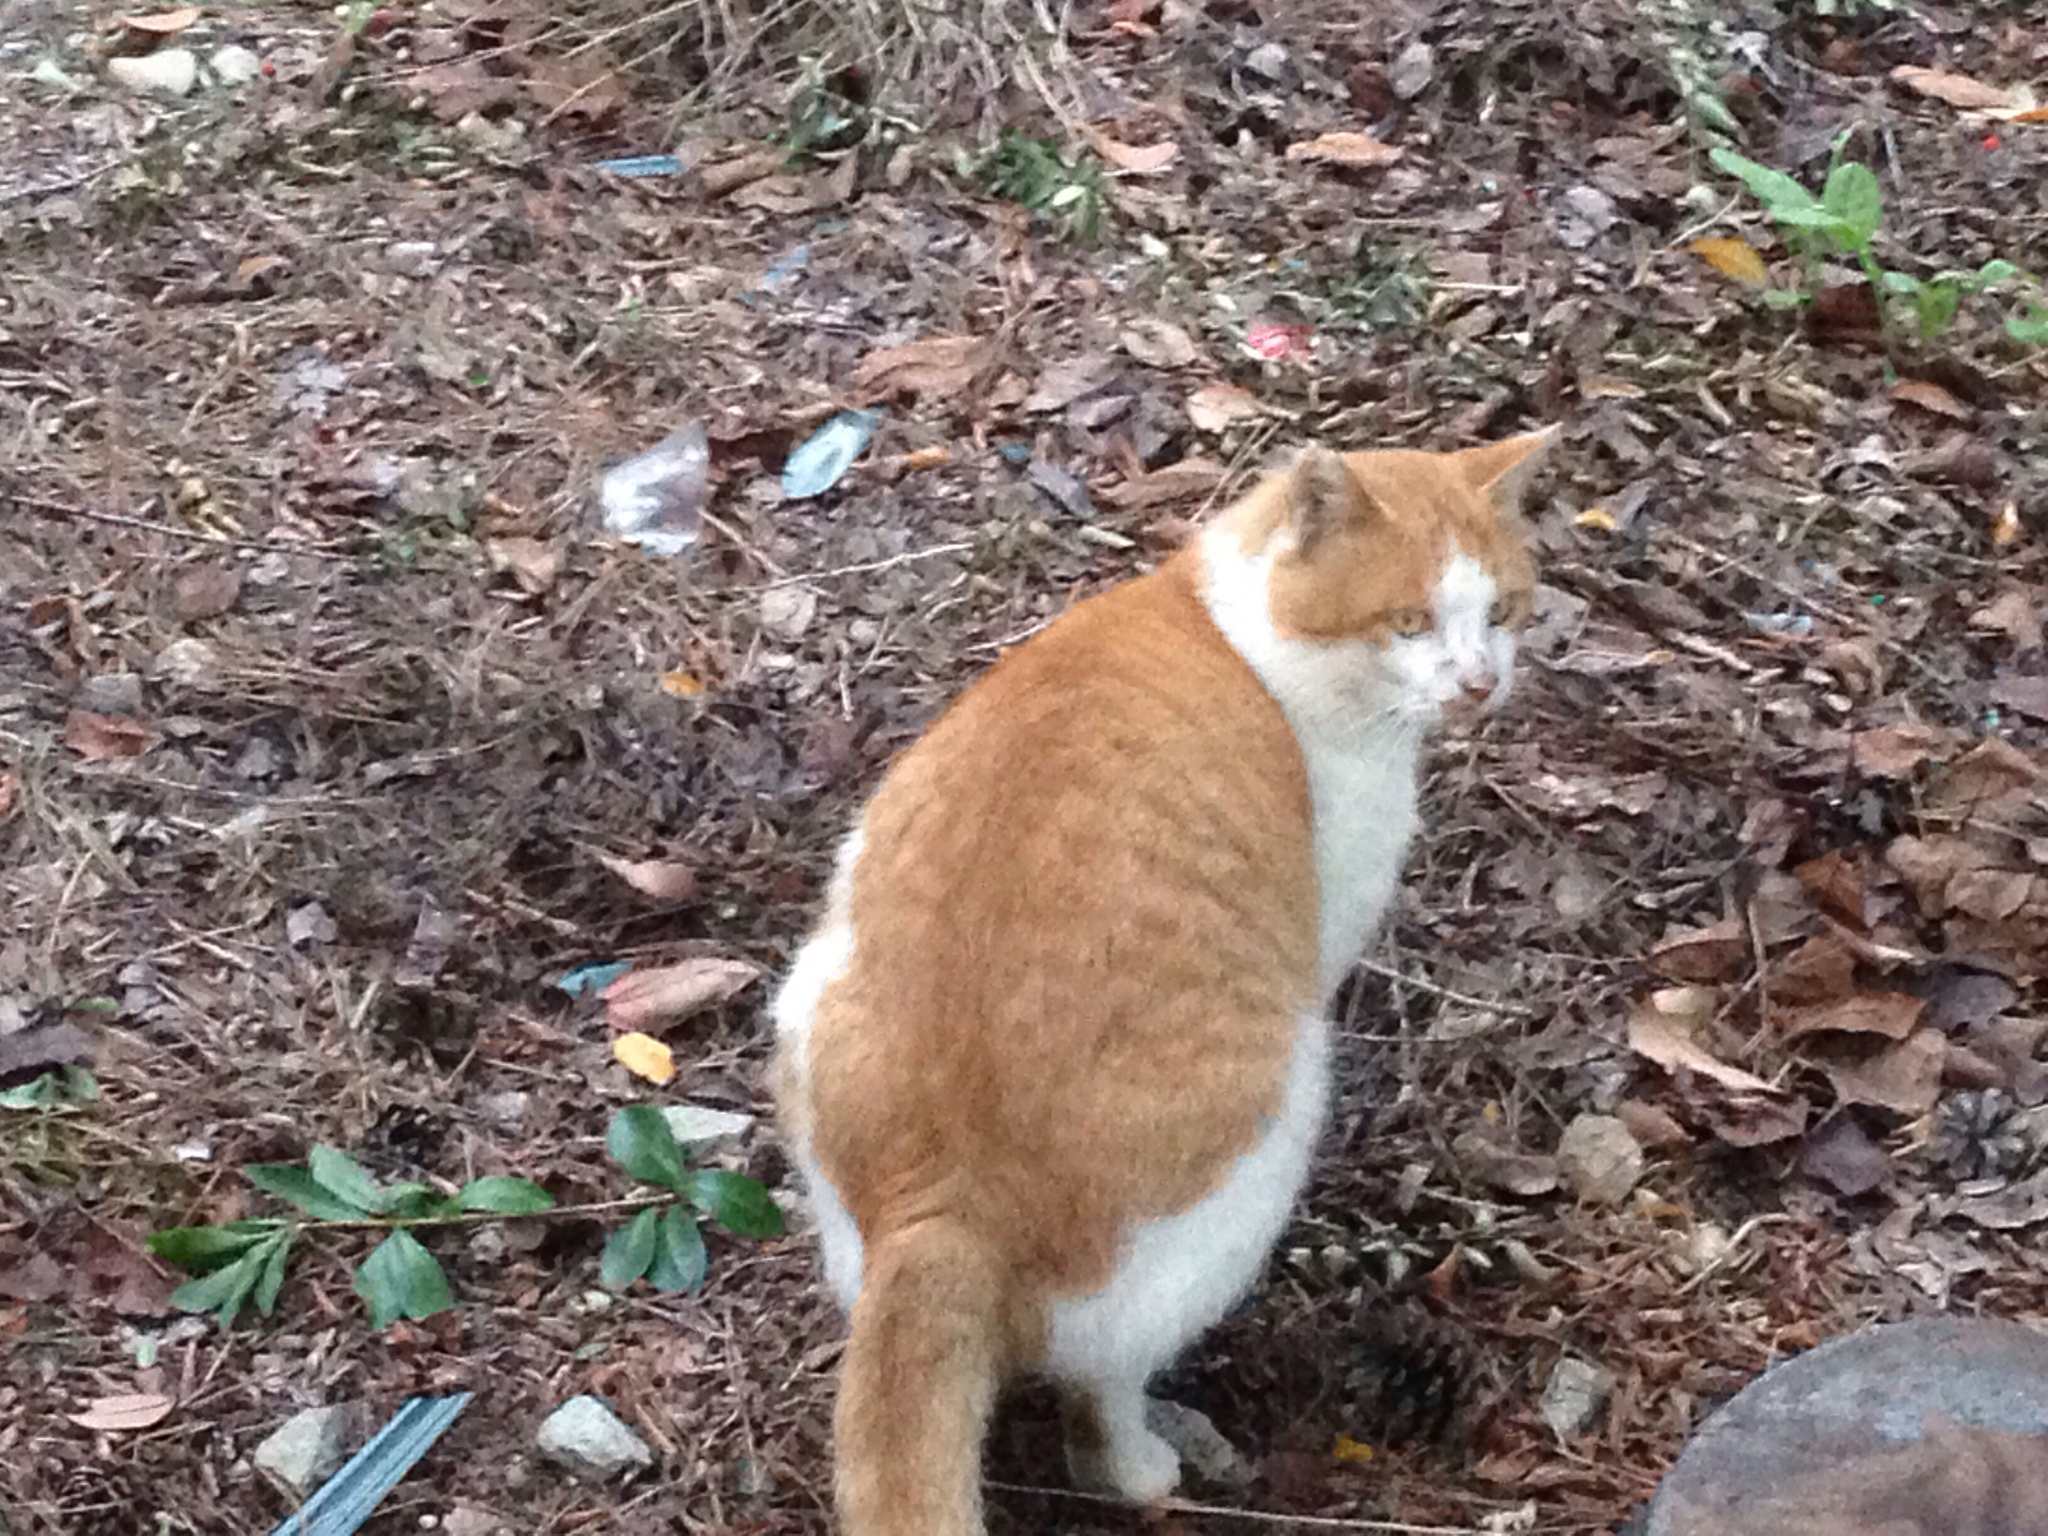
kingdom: Animalia
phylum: Chordata
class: Mammalia
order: Carnivora
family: Felidae
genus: Felis
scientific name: Felis catus
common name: Domestic cat
